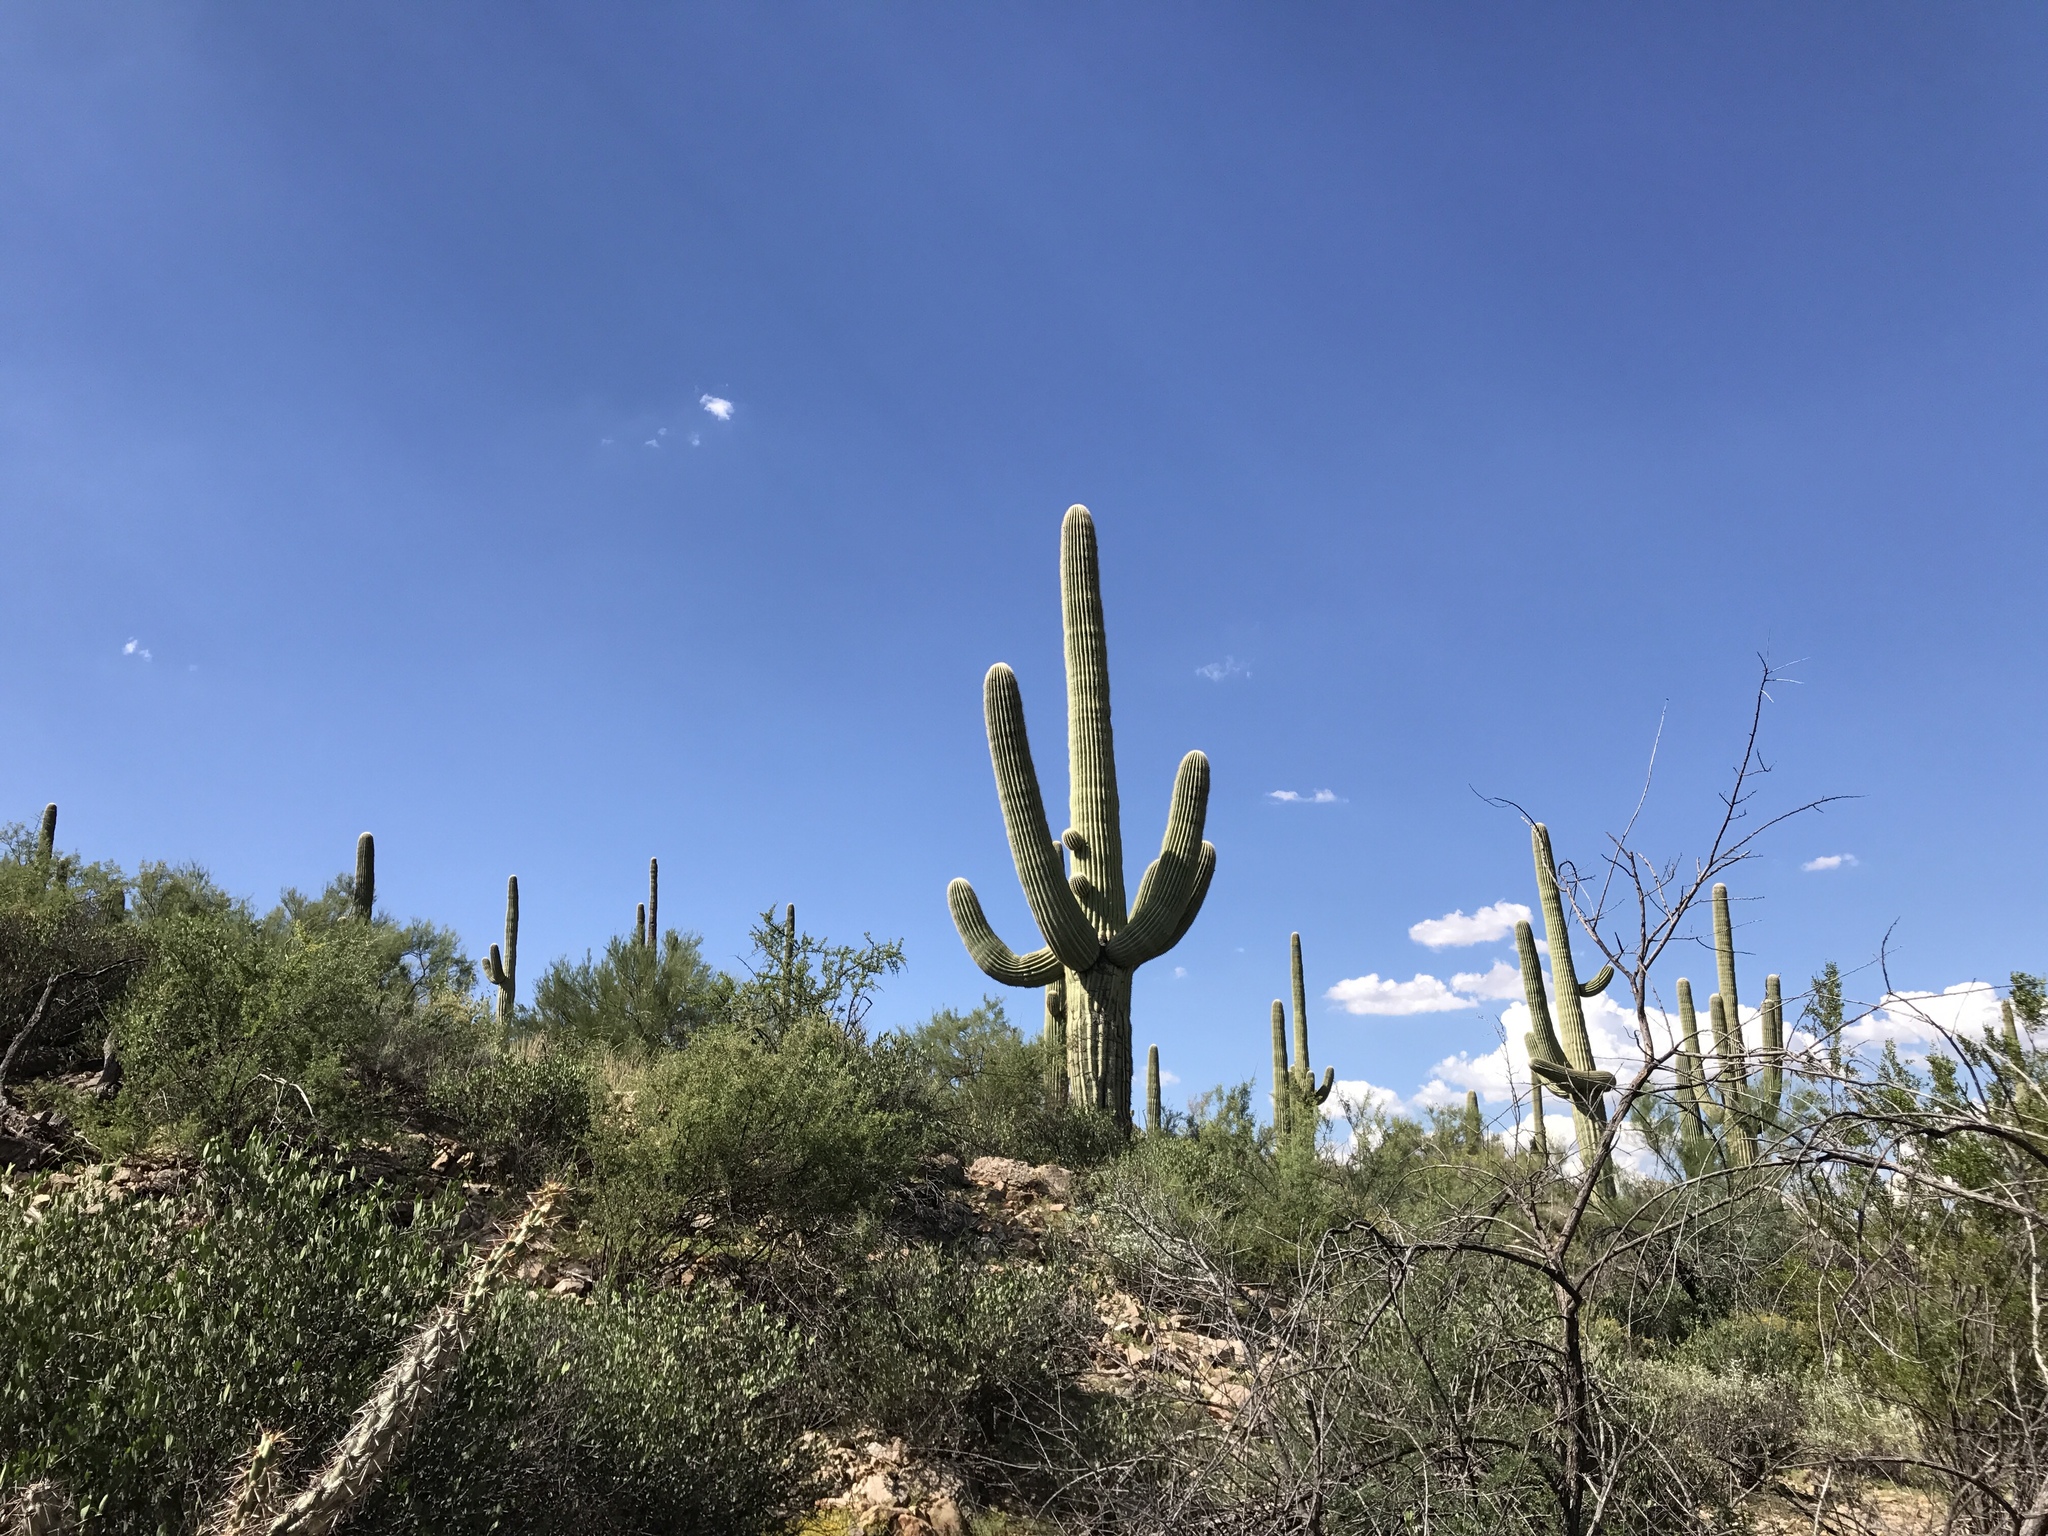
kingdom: Plantae
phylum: Tracheophyta
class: Magnoliopsida
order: Caryophyllales
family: Cactaceae
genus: Carnegiea
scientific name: Carnegiea gigantea
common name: Saguaro
